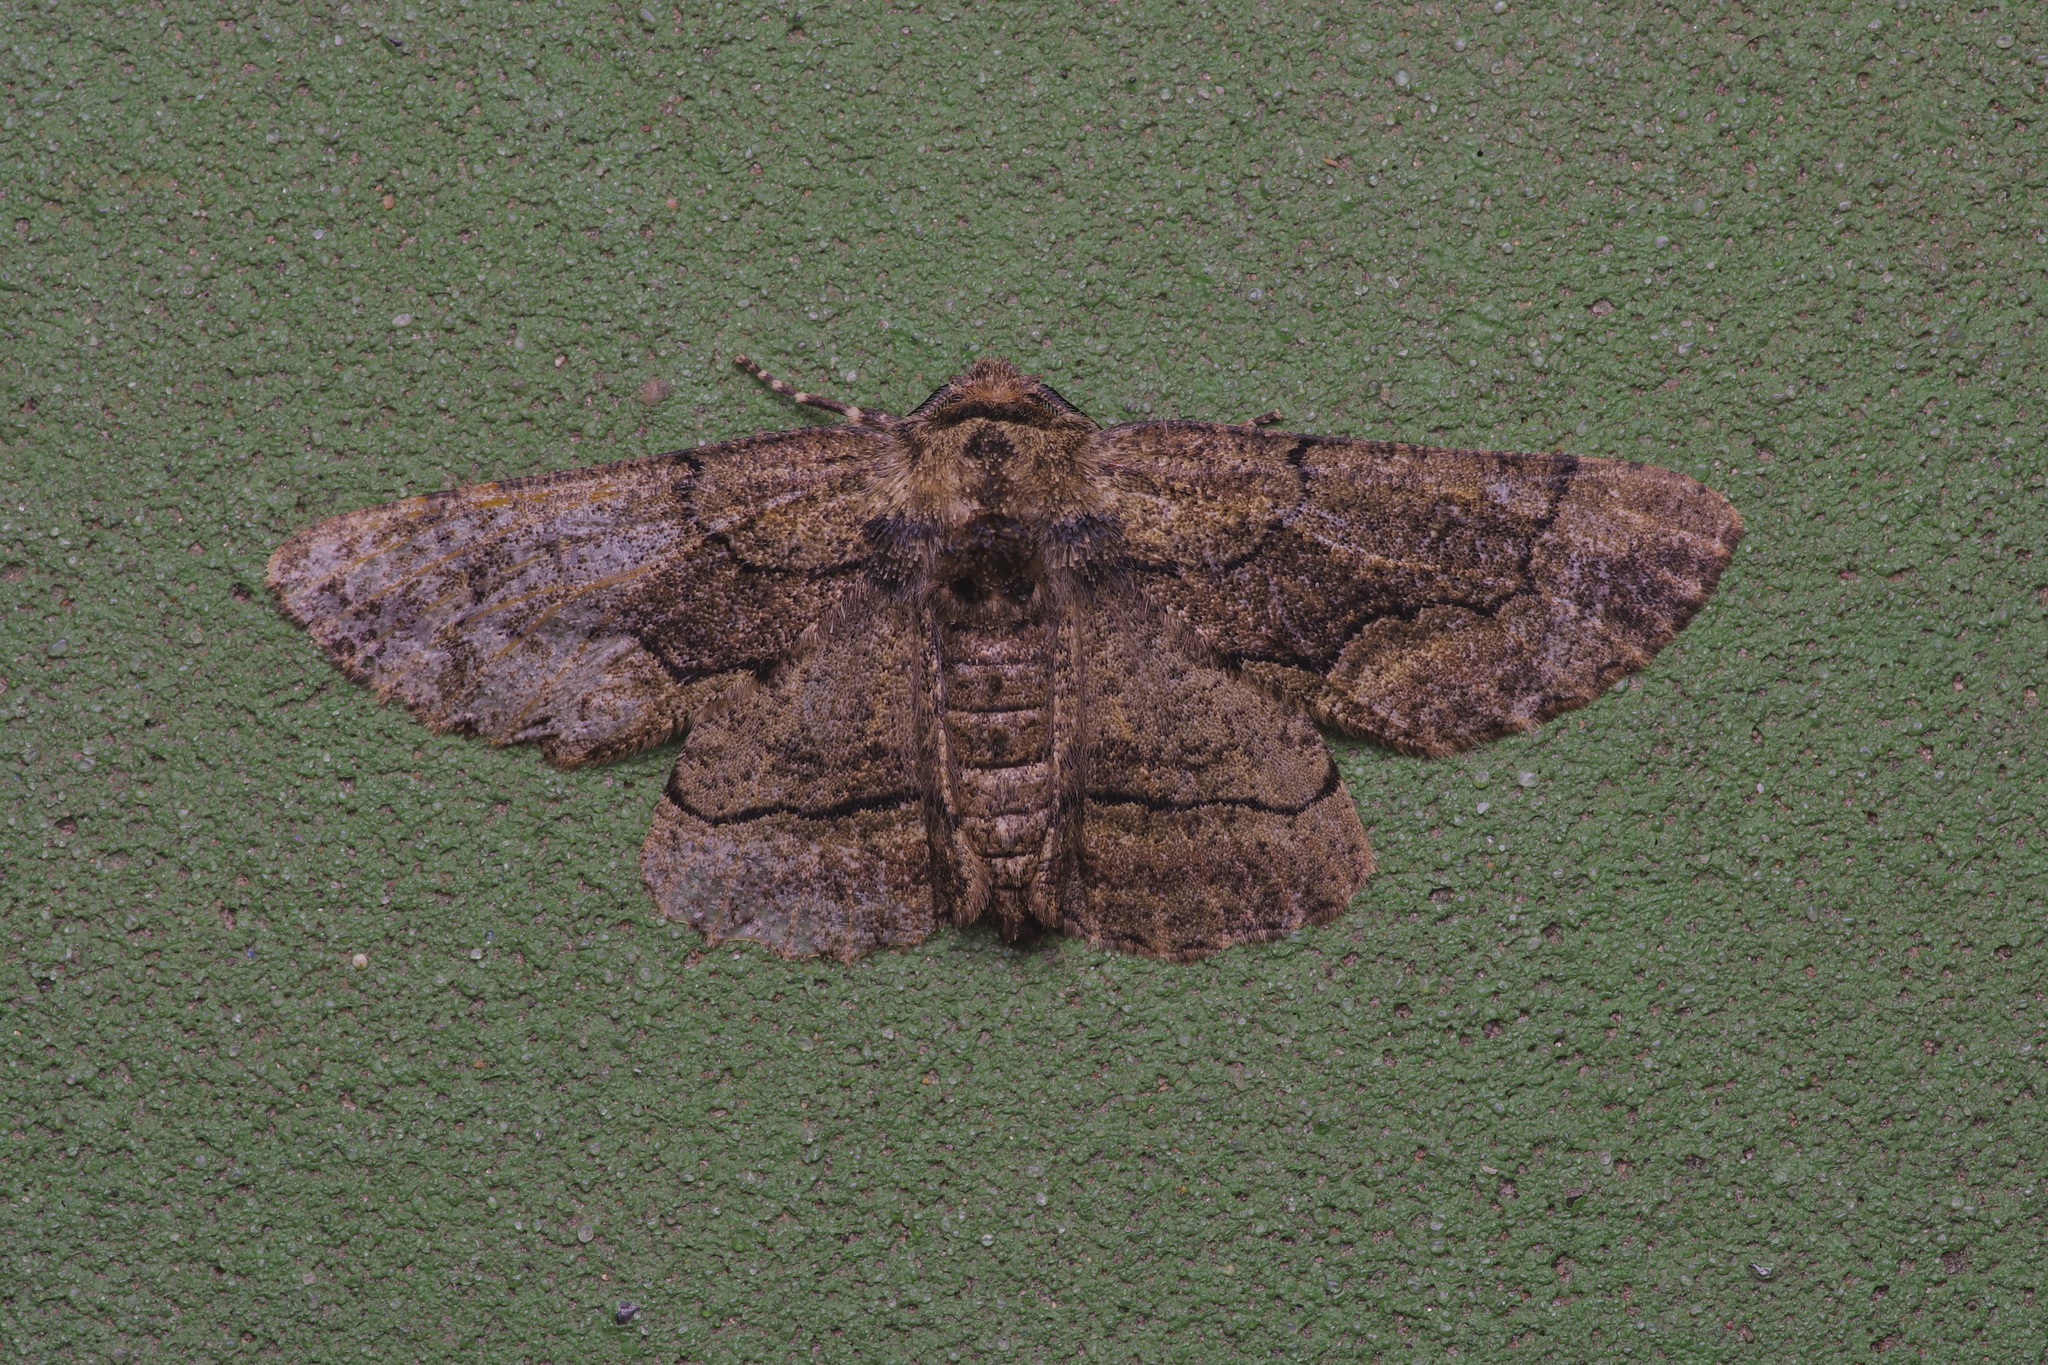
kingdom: Animalia
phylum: Arthropoda
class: Insecta
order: Lepidoptera
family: Geometridae
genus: Phaeoura
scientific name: Phaeoura quernaria
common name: Oak beauty
